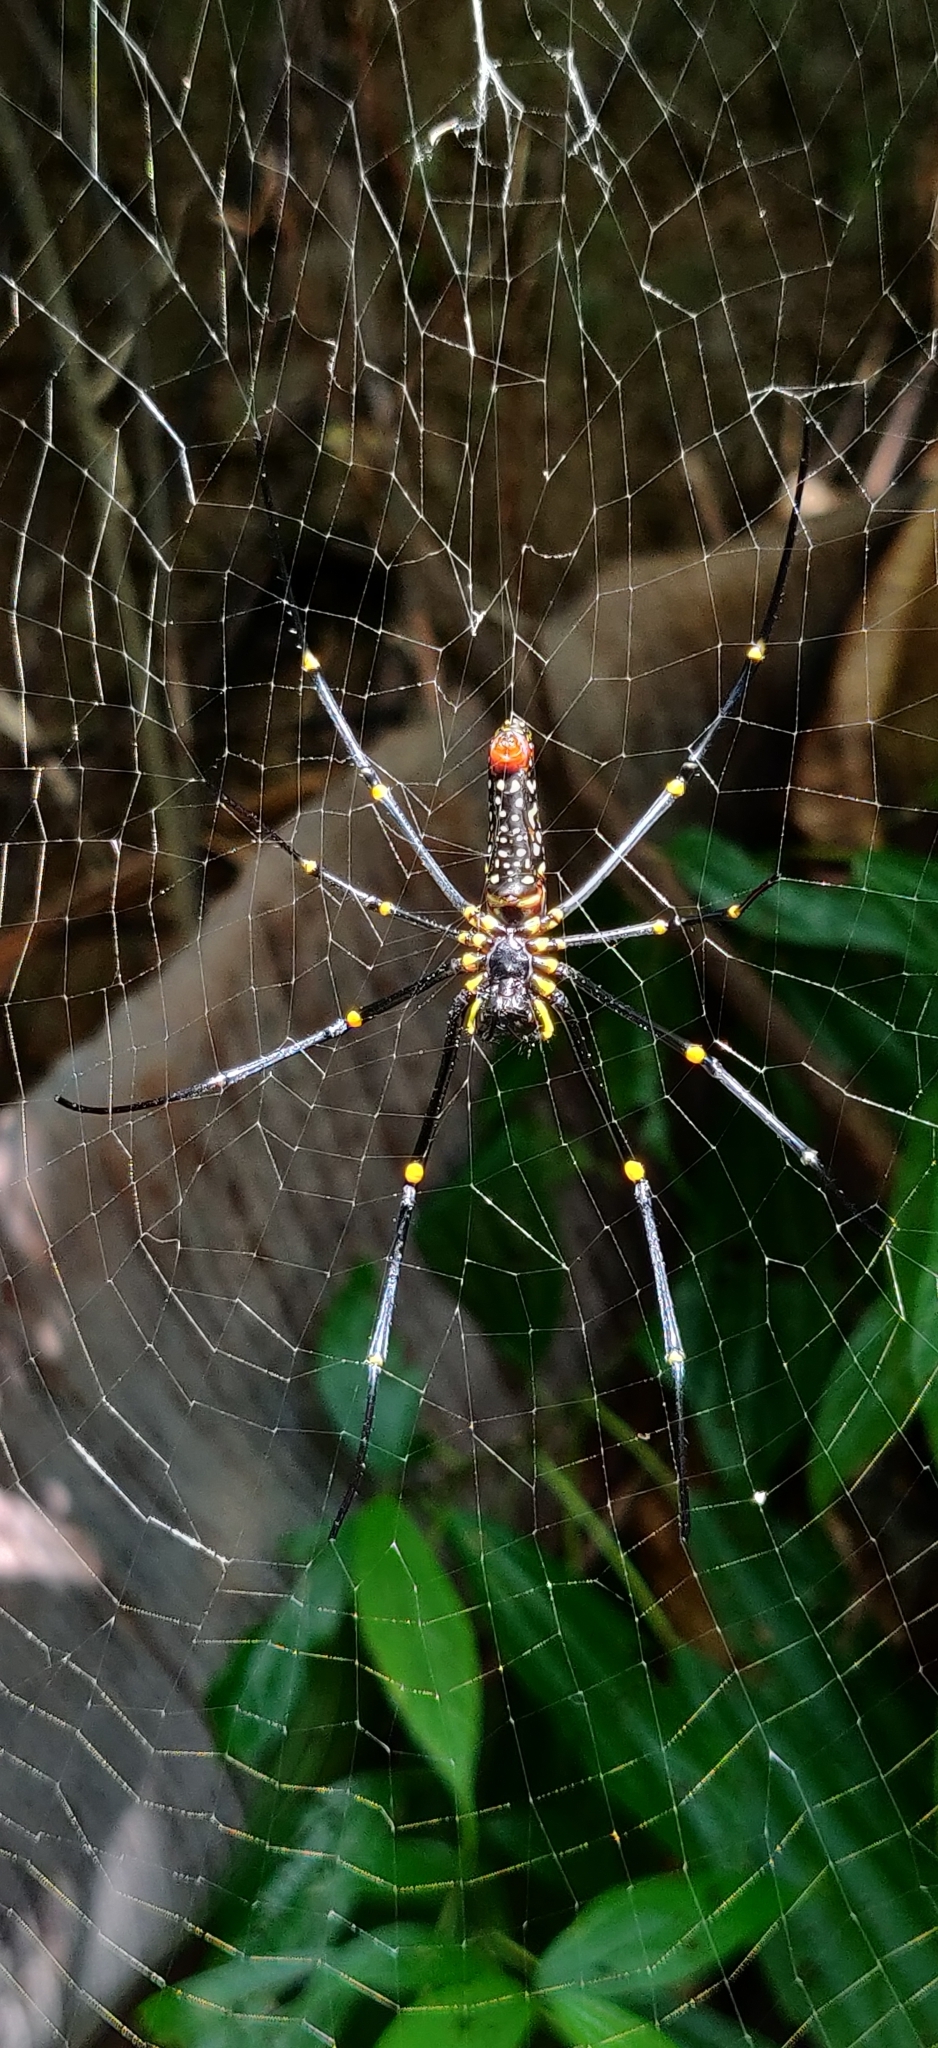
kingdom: Animalia
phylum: Arthropoda
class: Arachnida
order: Araneae
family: Araneidae
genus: Nephila
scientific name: Nephila pilipes
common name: Giant golden orb weaver
